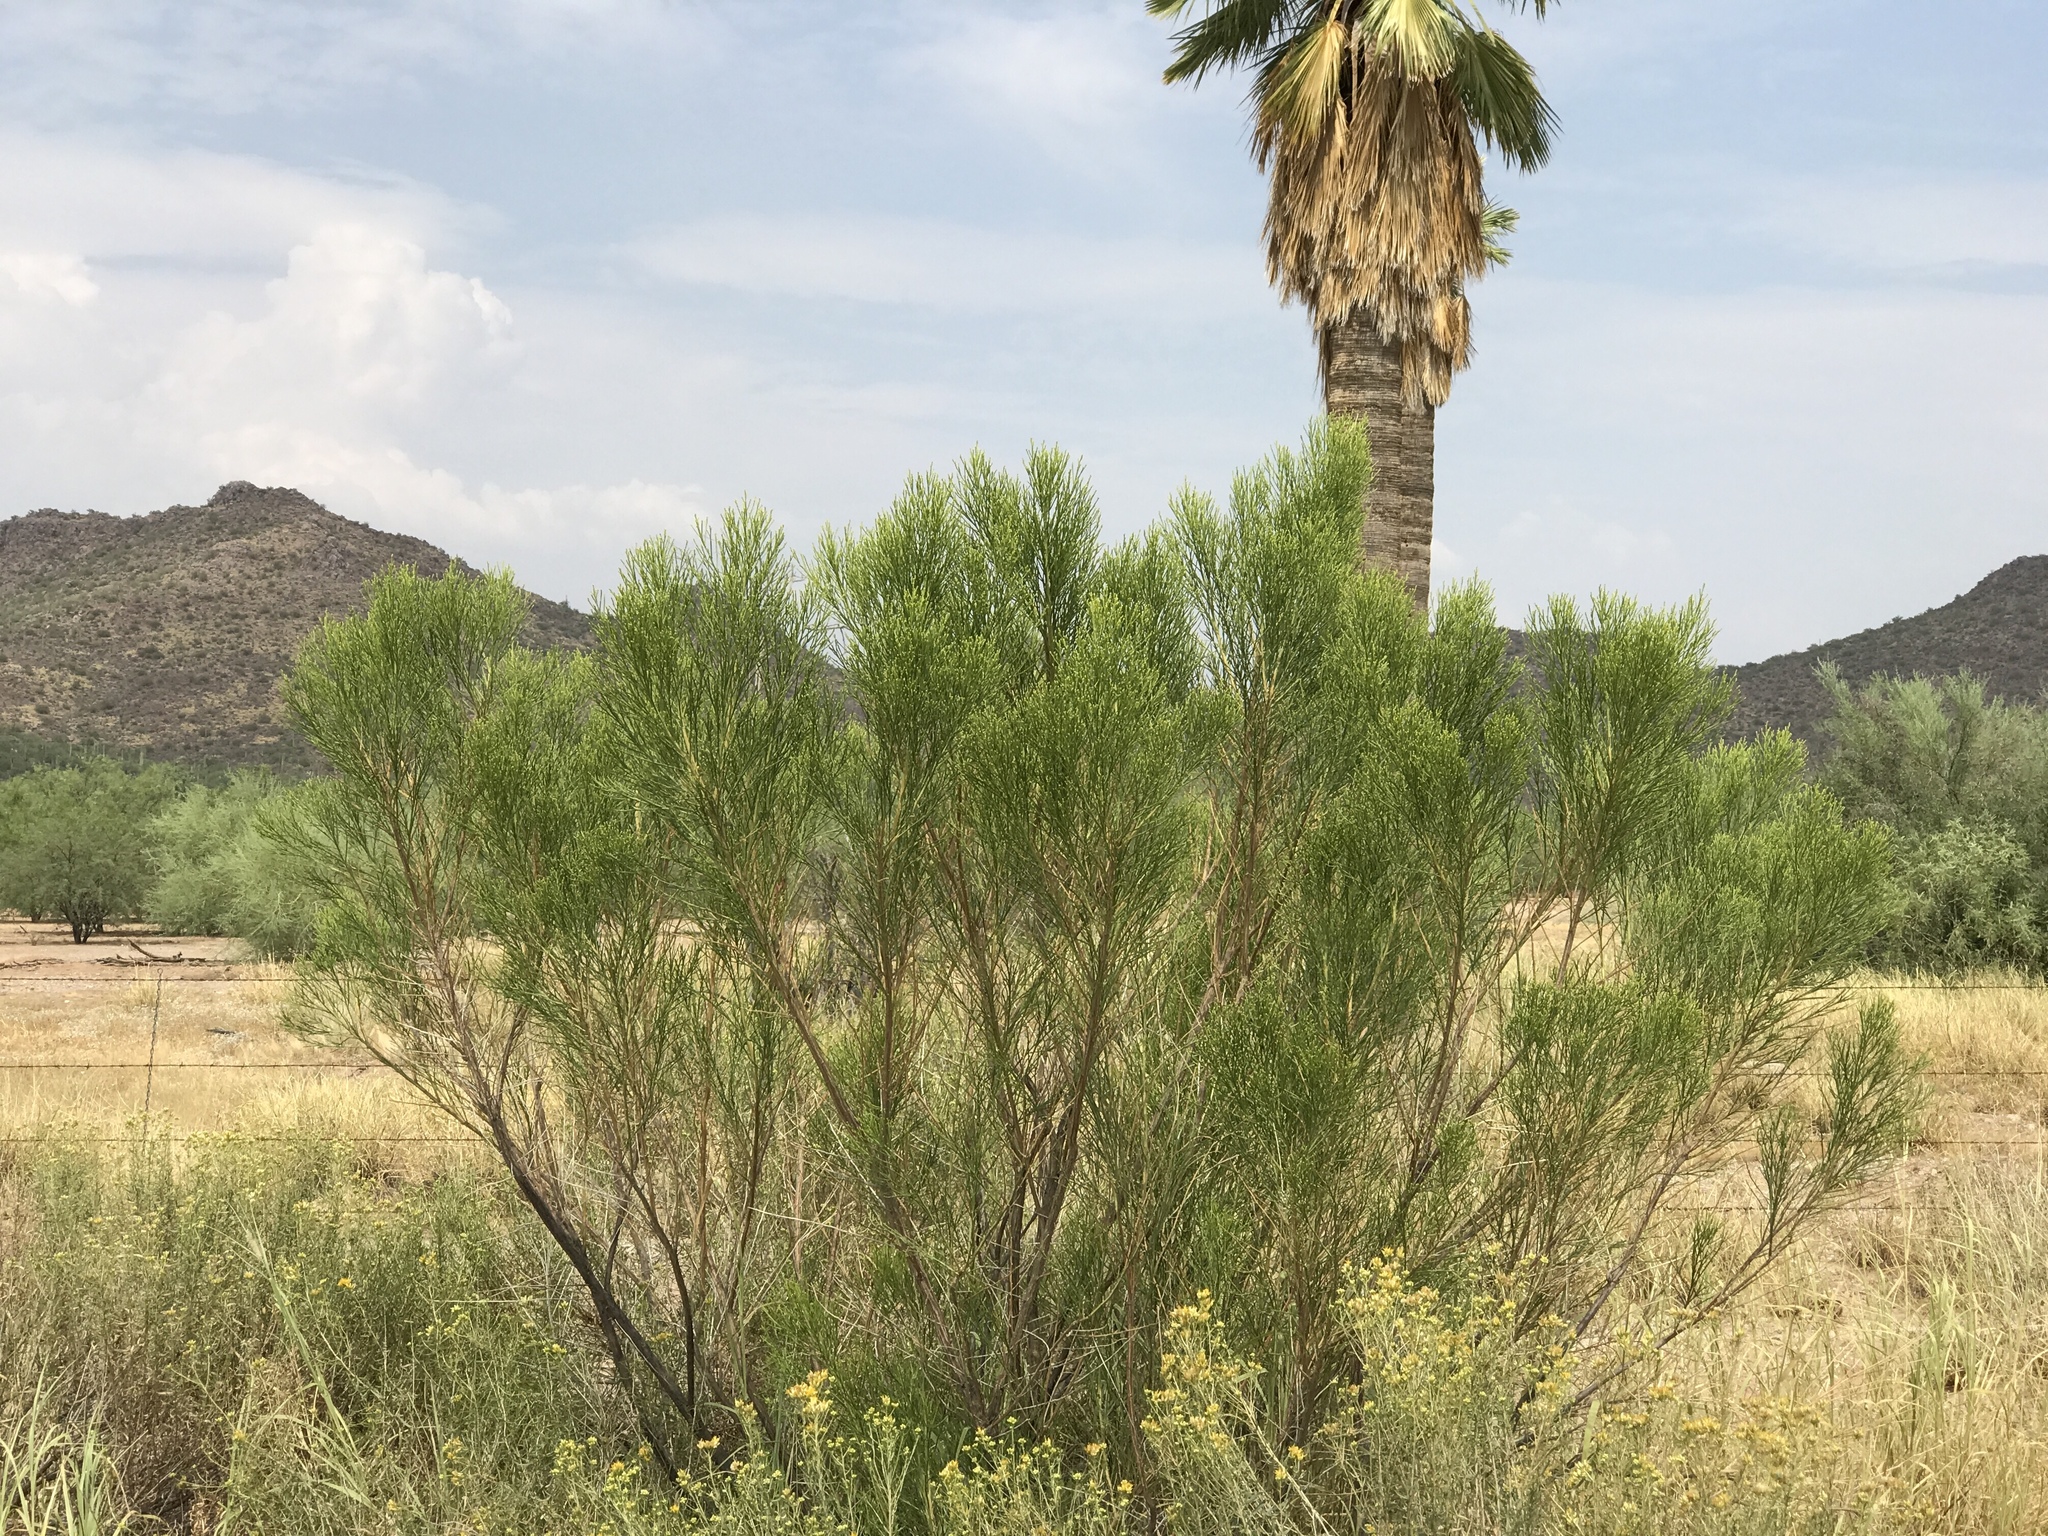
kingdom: Plantae
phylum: Tracheophyta
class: Magnoliopsida
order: Asterales
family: Asteraceae
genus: Baccharis
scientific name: Baccharis sarothroides
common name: Desert-broom
